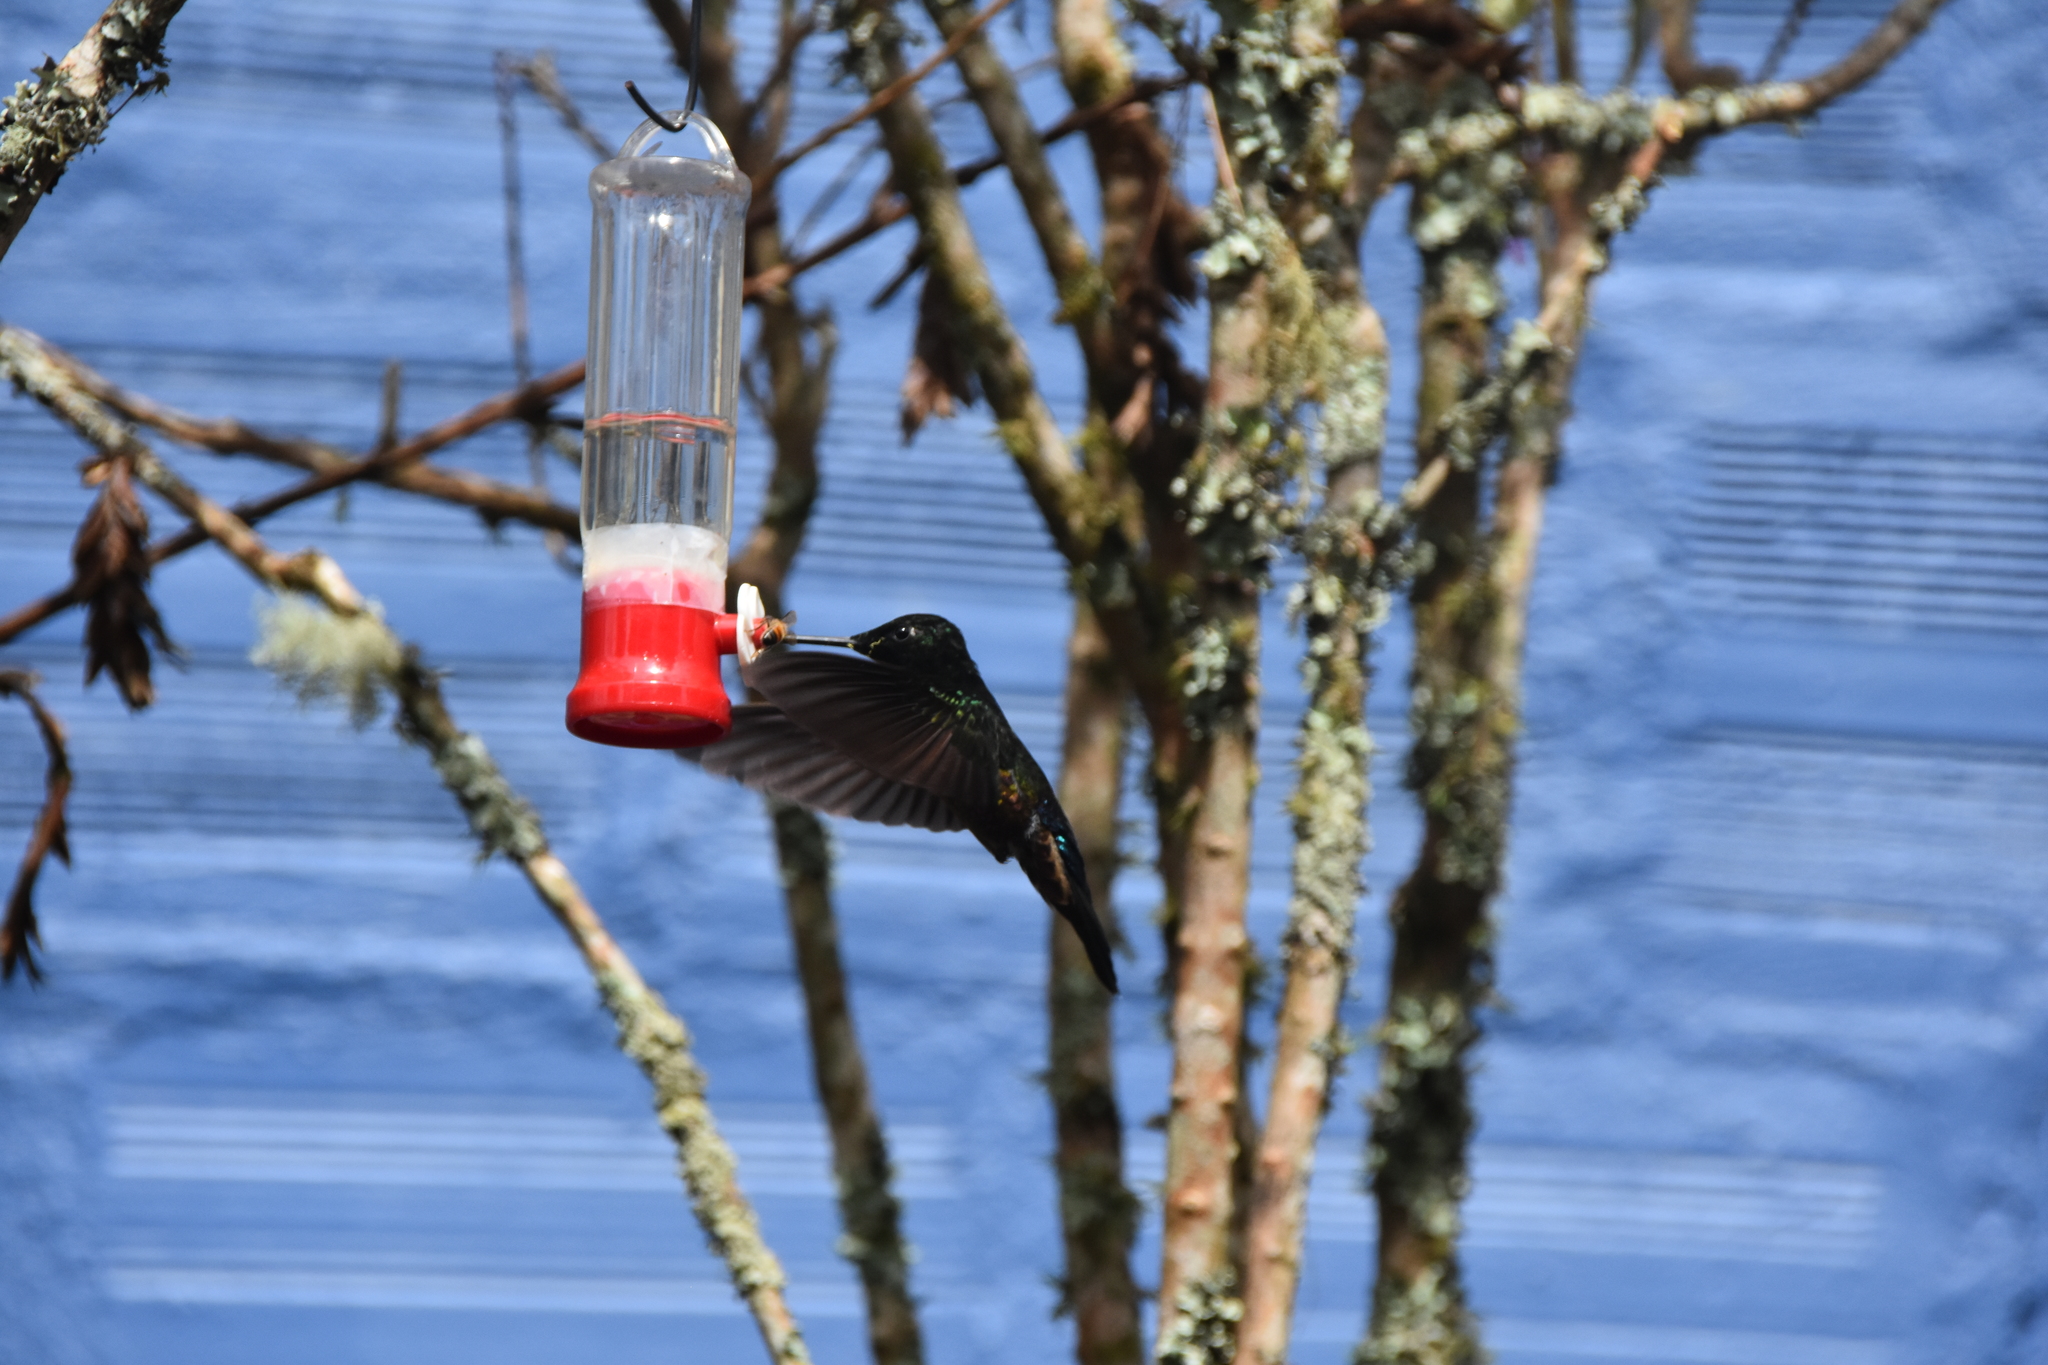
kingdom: Animalia
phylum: Chordata
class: Aves
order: Apodiformes
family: Trochilidae
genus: Coeligena
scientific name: Coeligena helianthea
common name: Blue-throated starfrontlet
